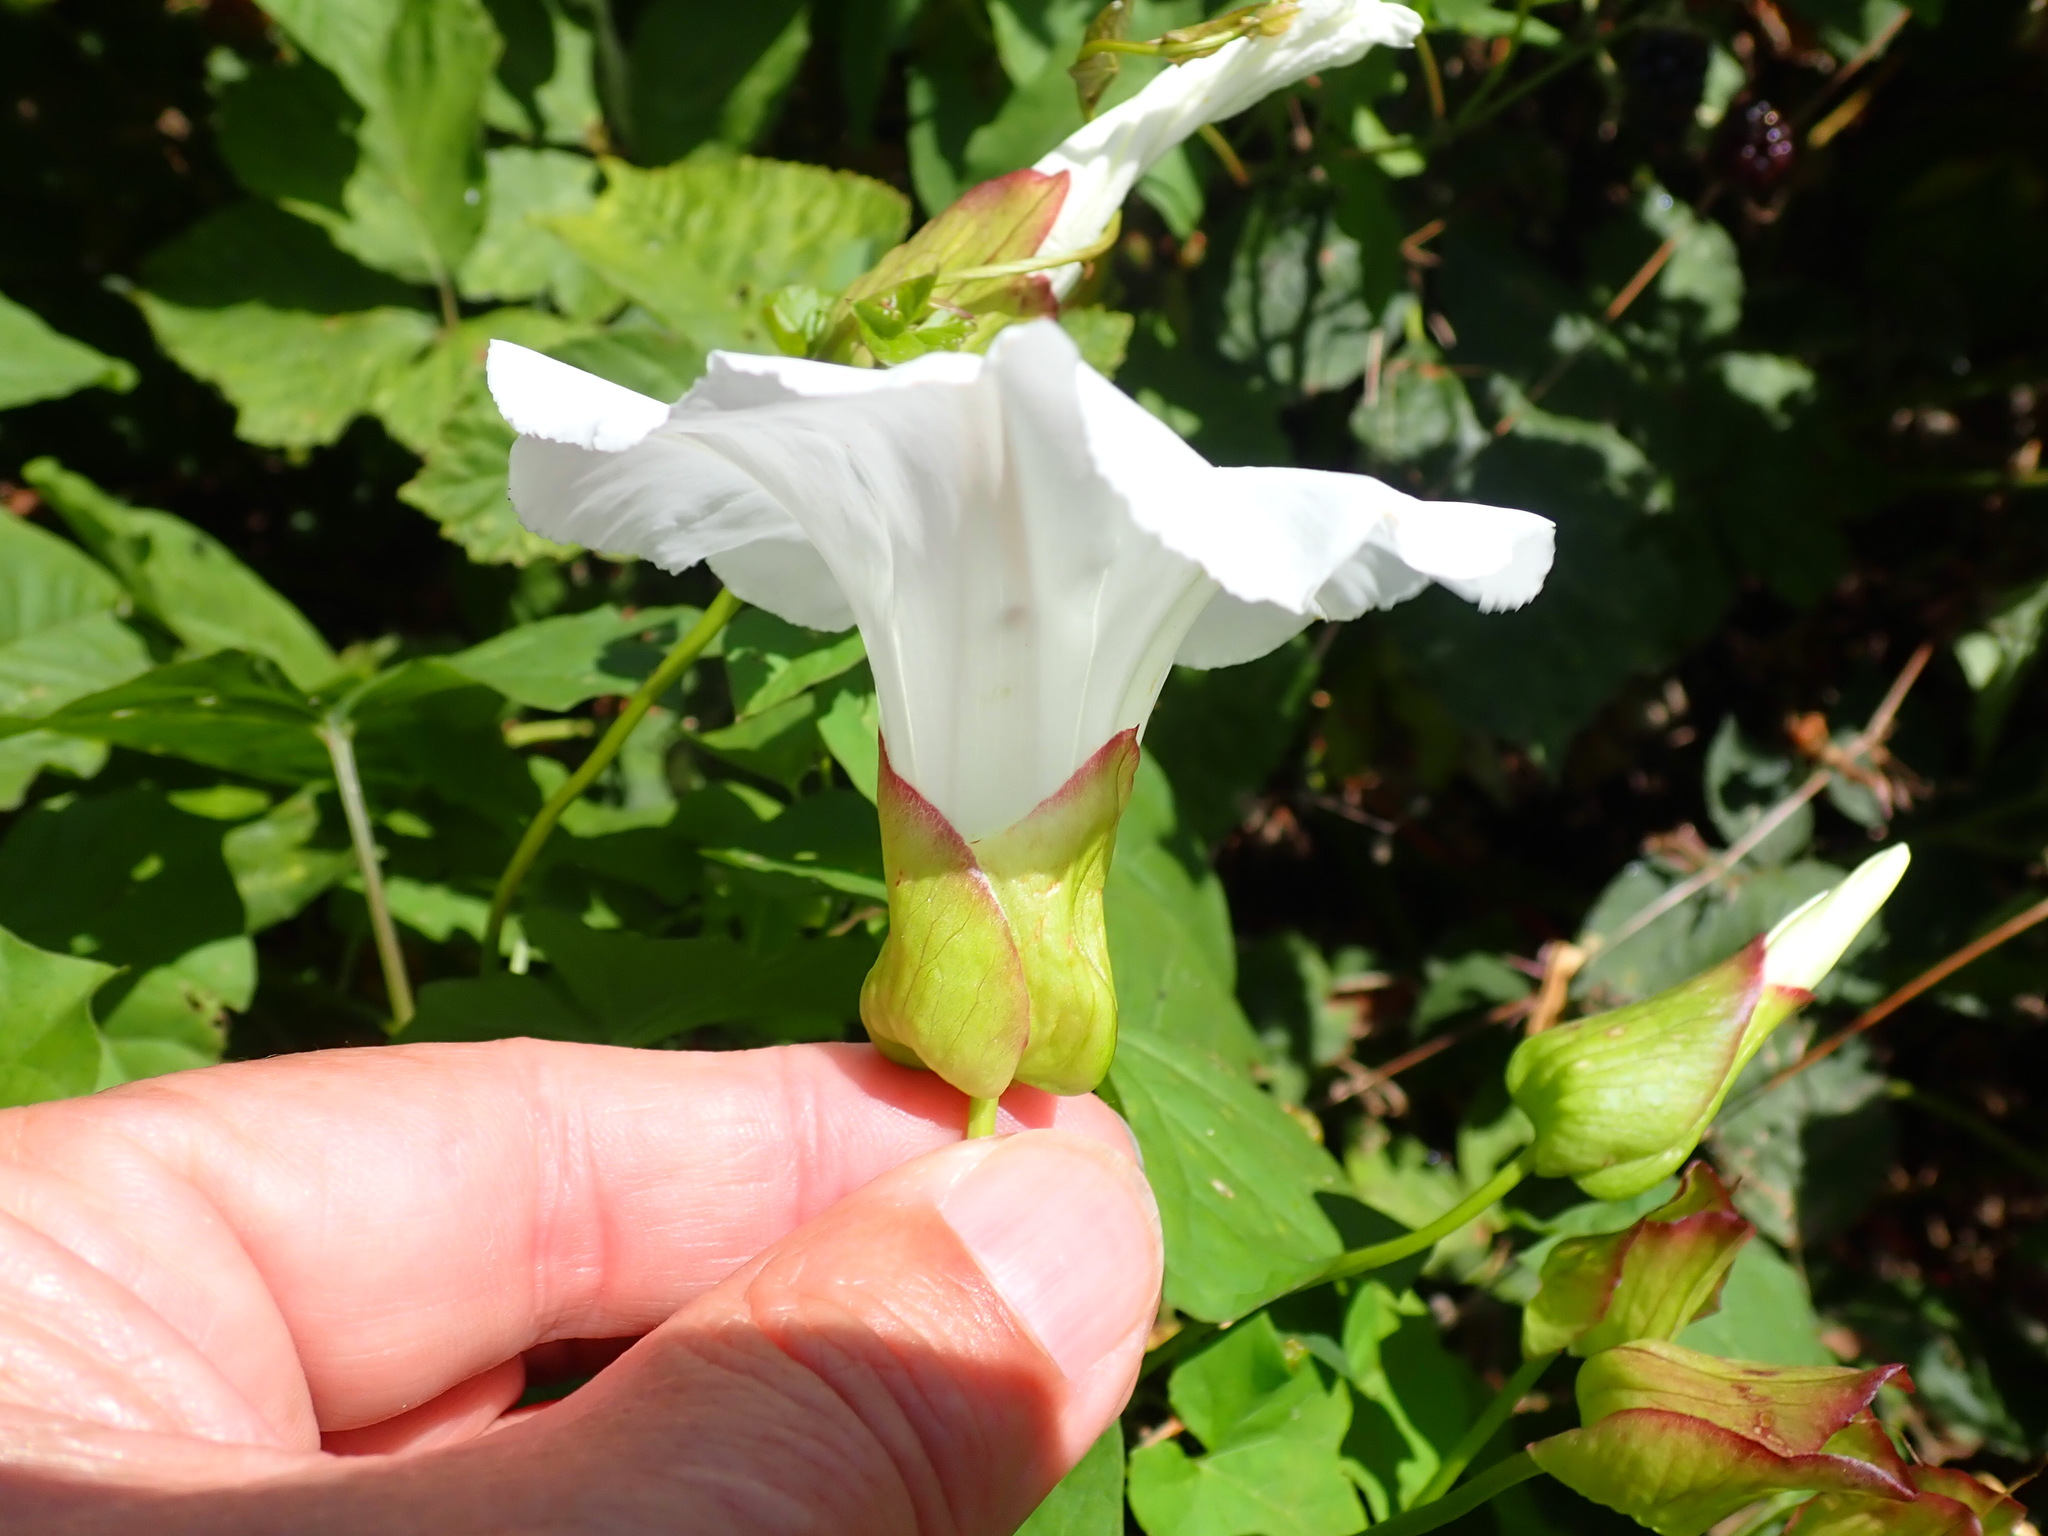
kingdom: Plantae
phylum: Tracheophyta
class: Magnoliopsida
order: Solanales
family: Convolvulaceae
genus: Calystegia
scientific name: Calystegia silvatica
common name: Large bindweed
